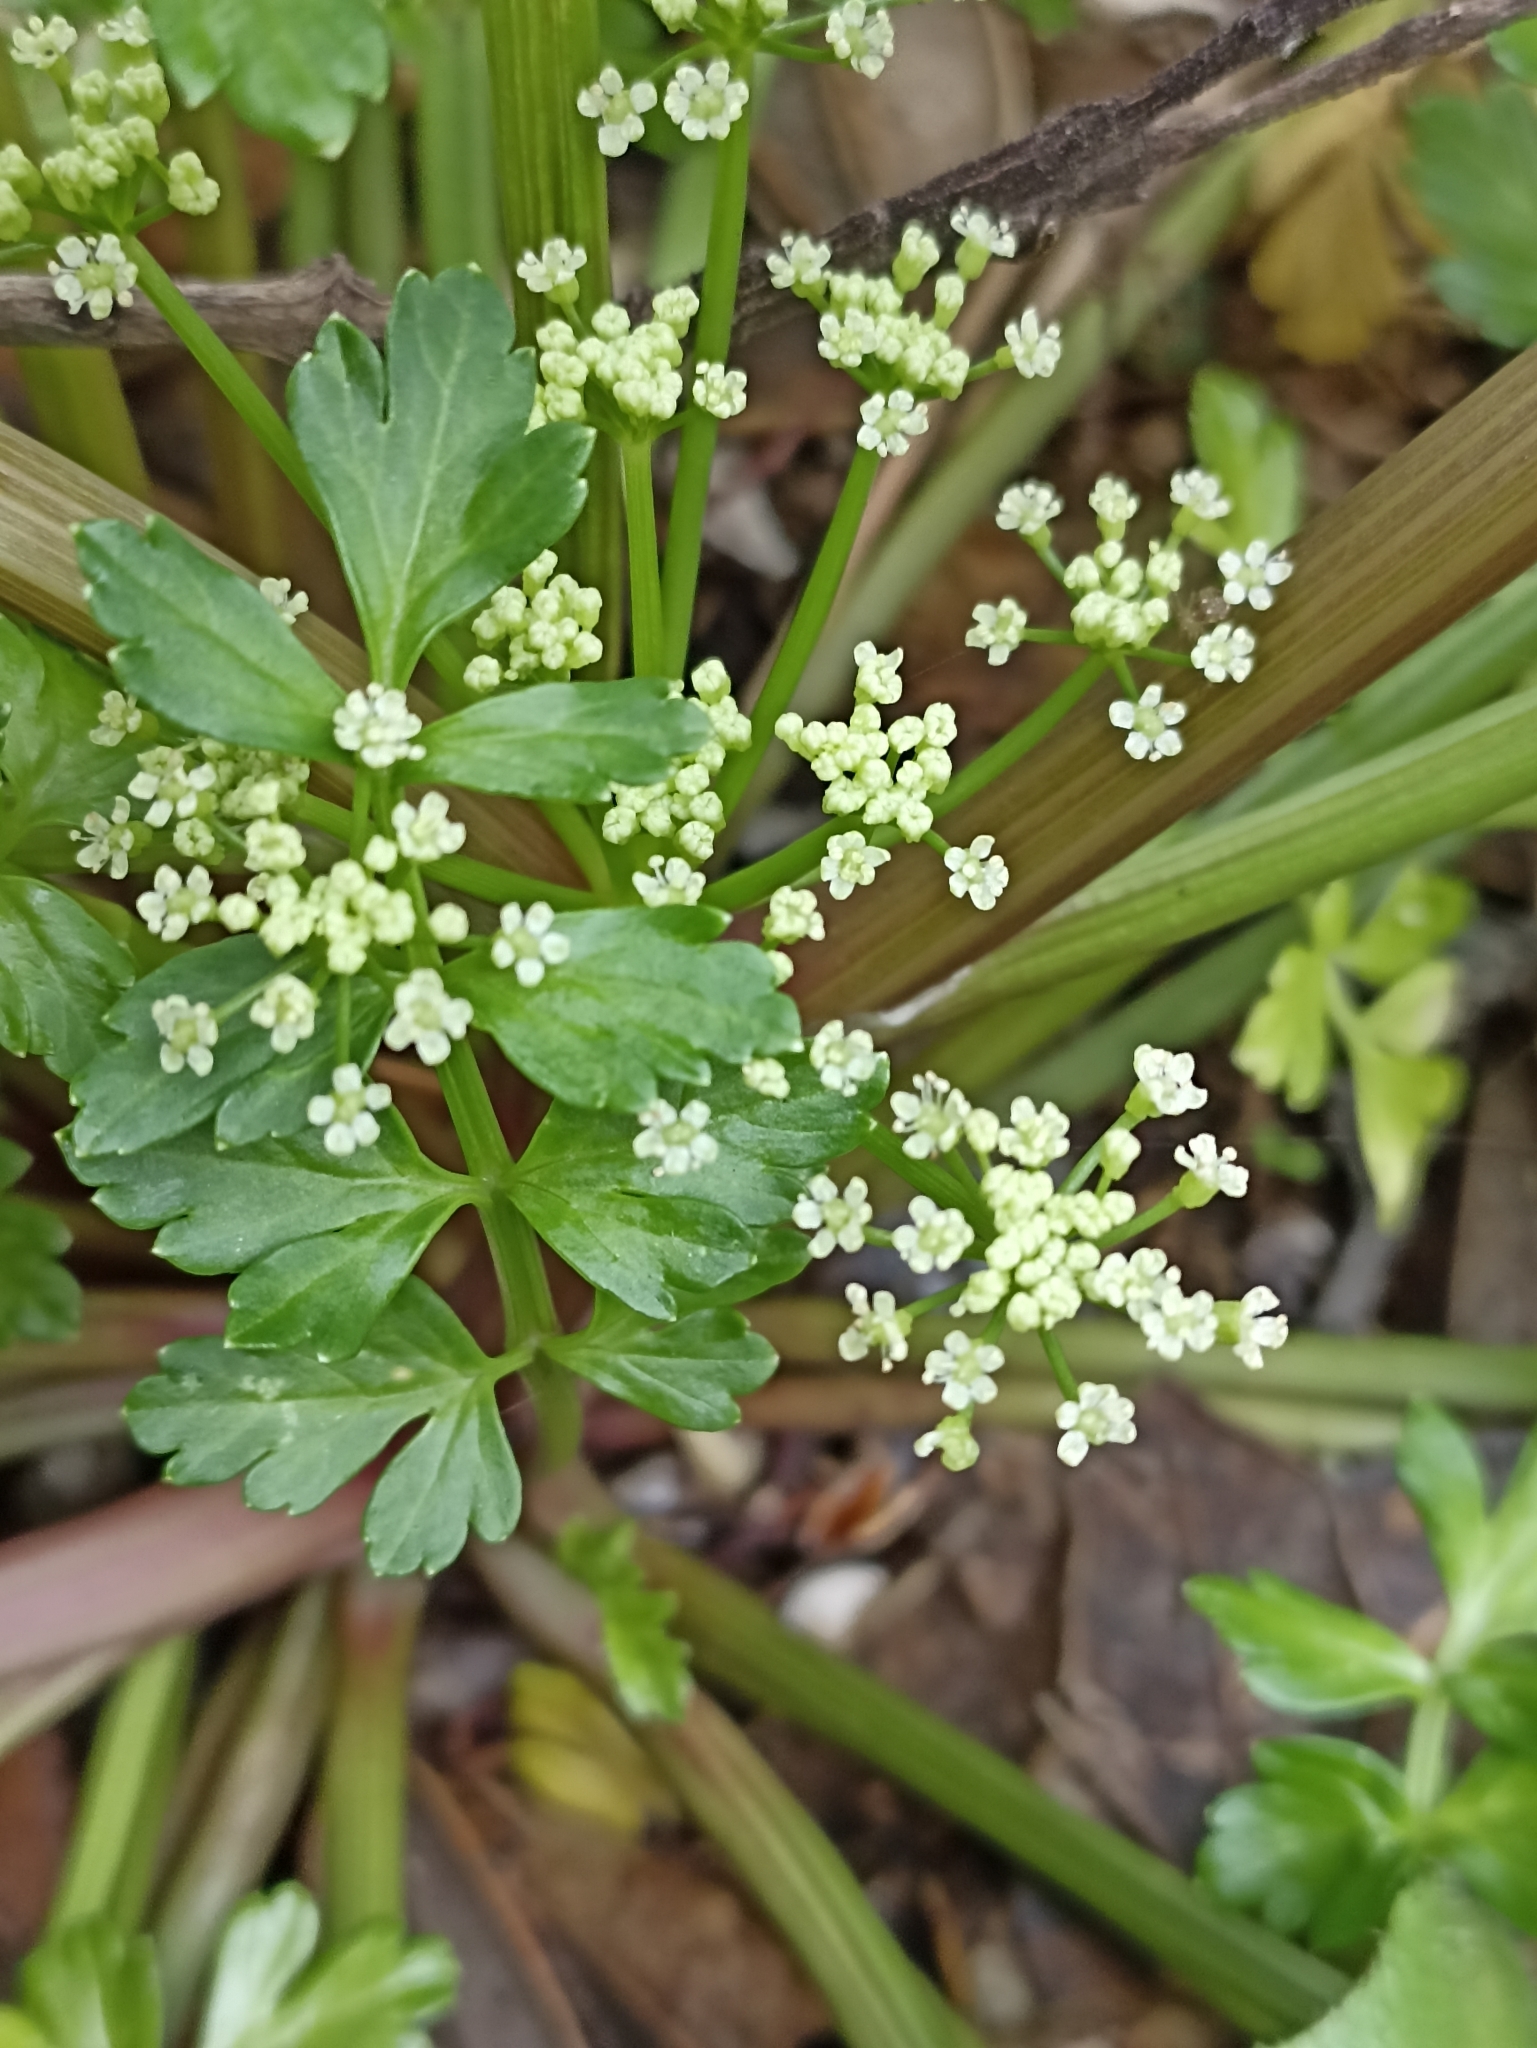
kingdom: Plantae
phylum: Tracheophyta
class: Magnoliopsida
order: Apiales
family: Apiaceae
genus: Apium
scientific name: Apium prostratum
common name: Prostrate marshwort
